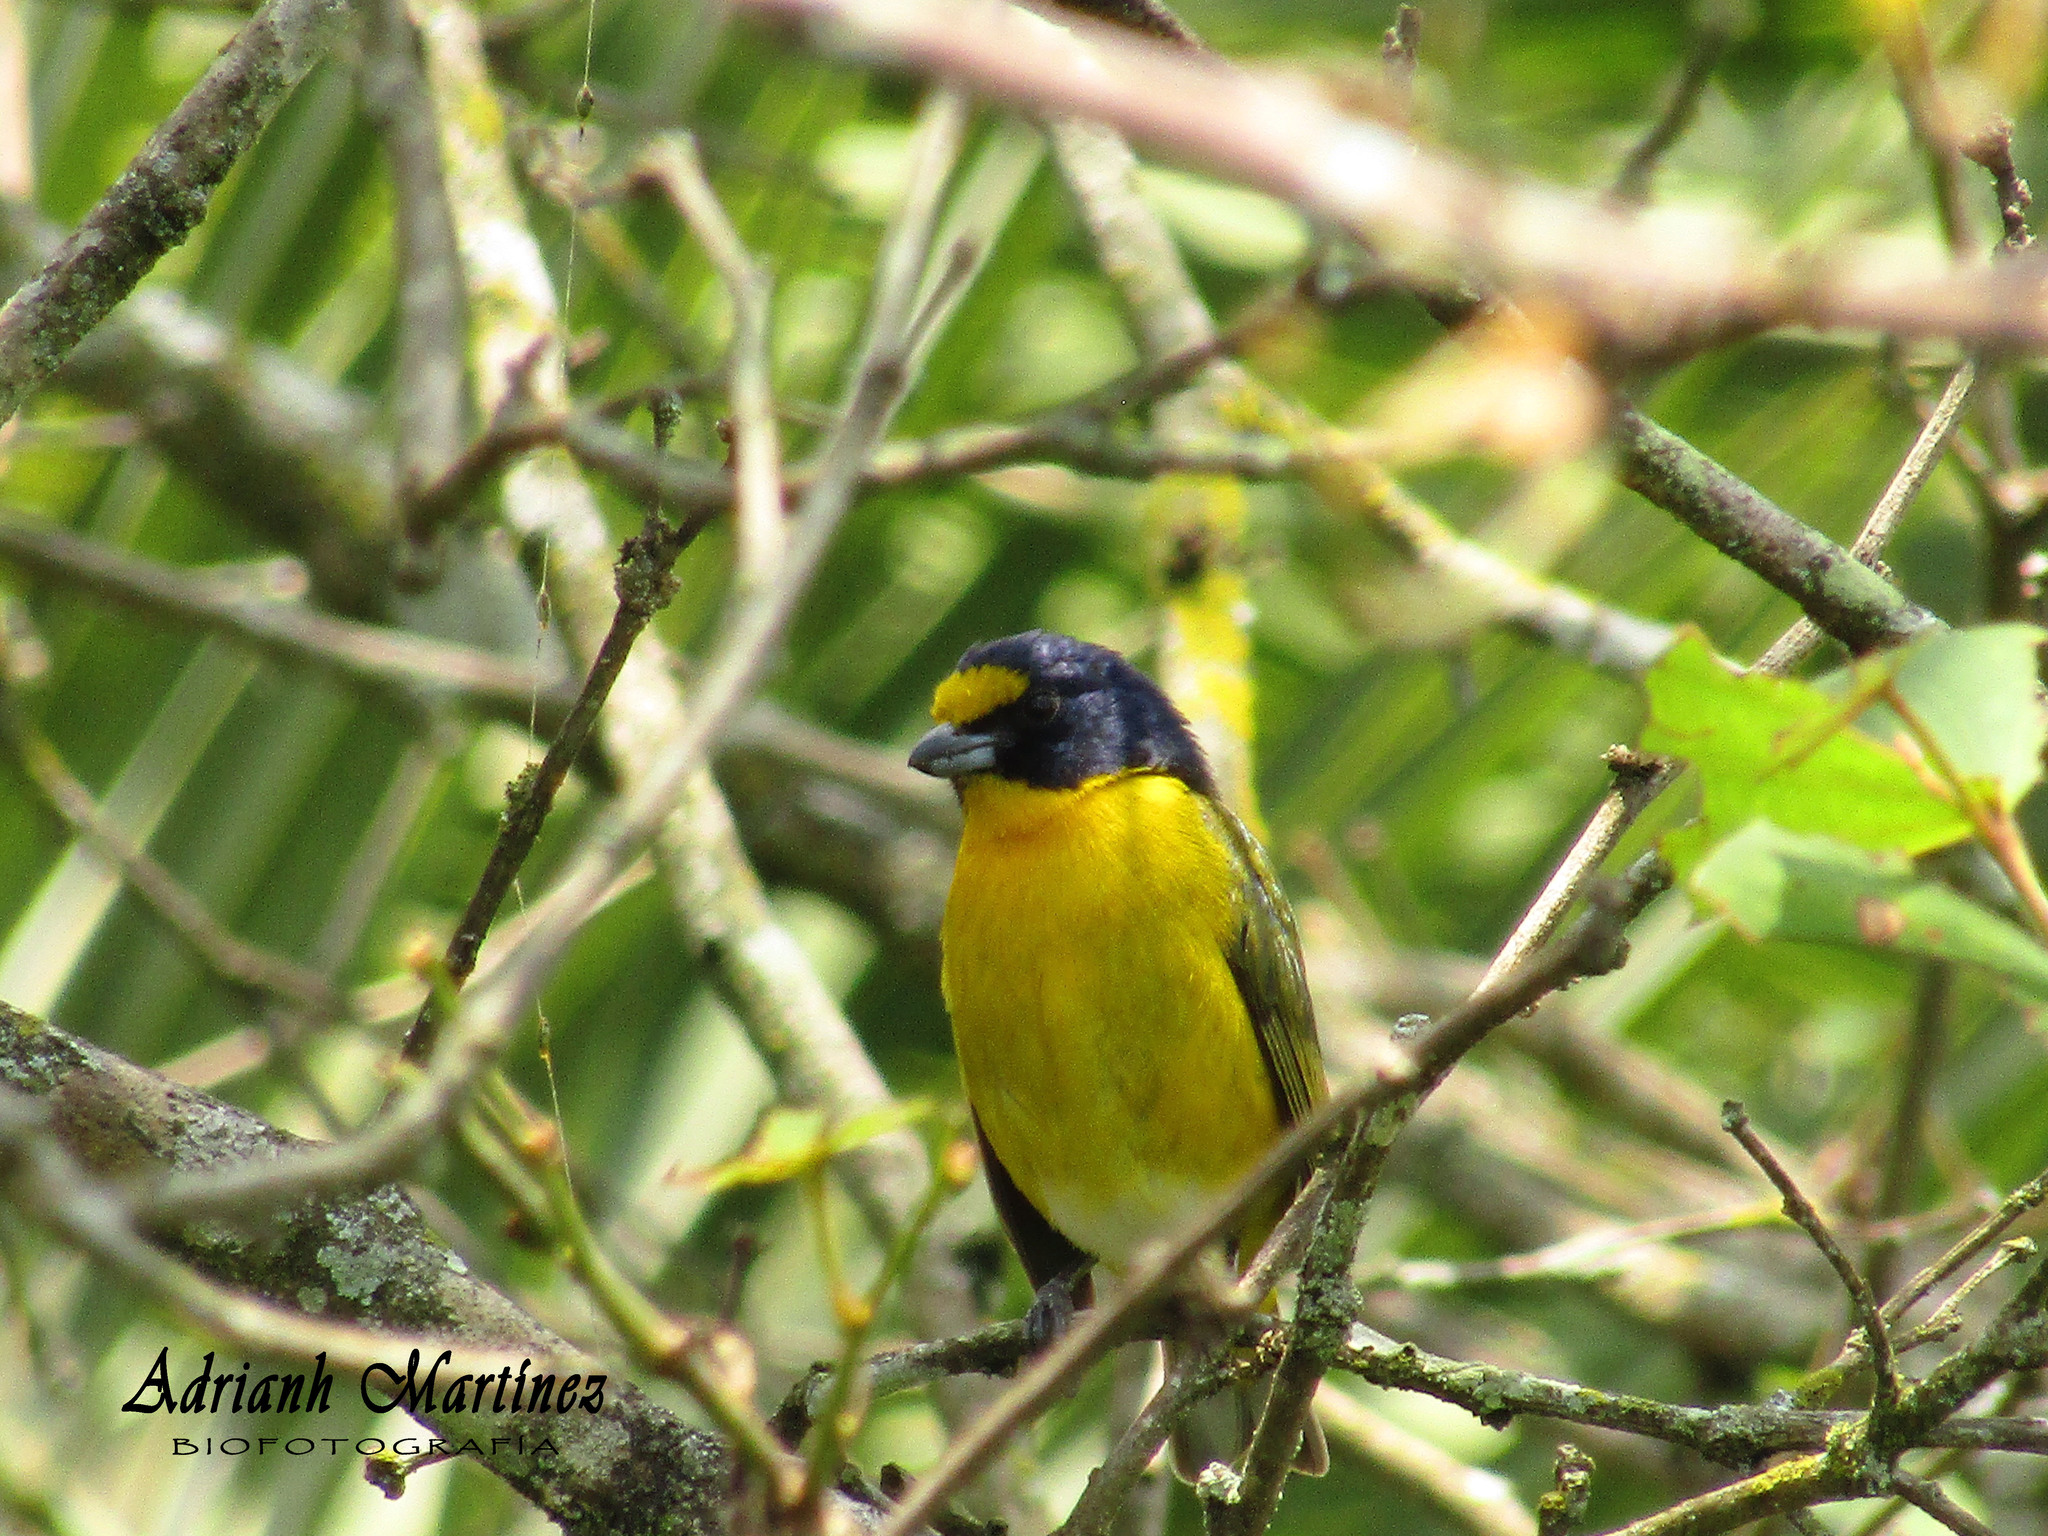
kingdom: Animalia
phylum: Chordata
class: Aves
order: Passeriformes
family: Fringillidae
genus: Euphonia
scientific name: Euphonia hirundinacea
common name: Yellow-throated euphonia
